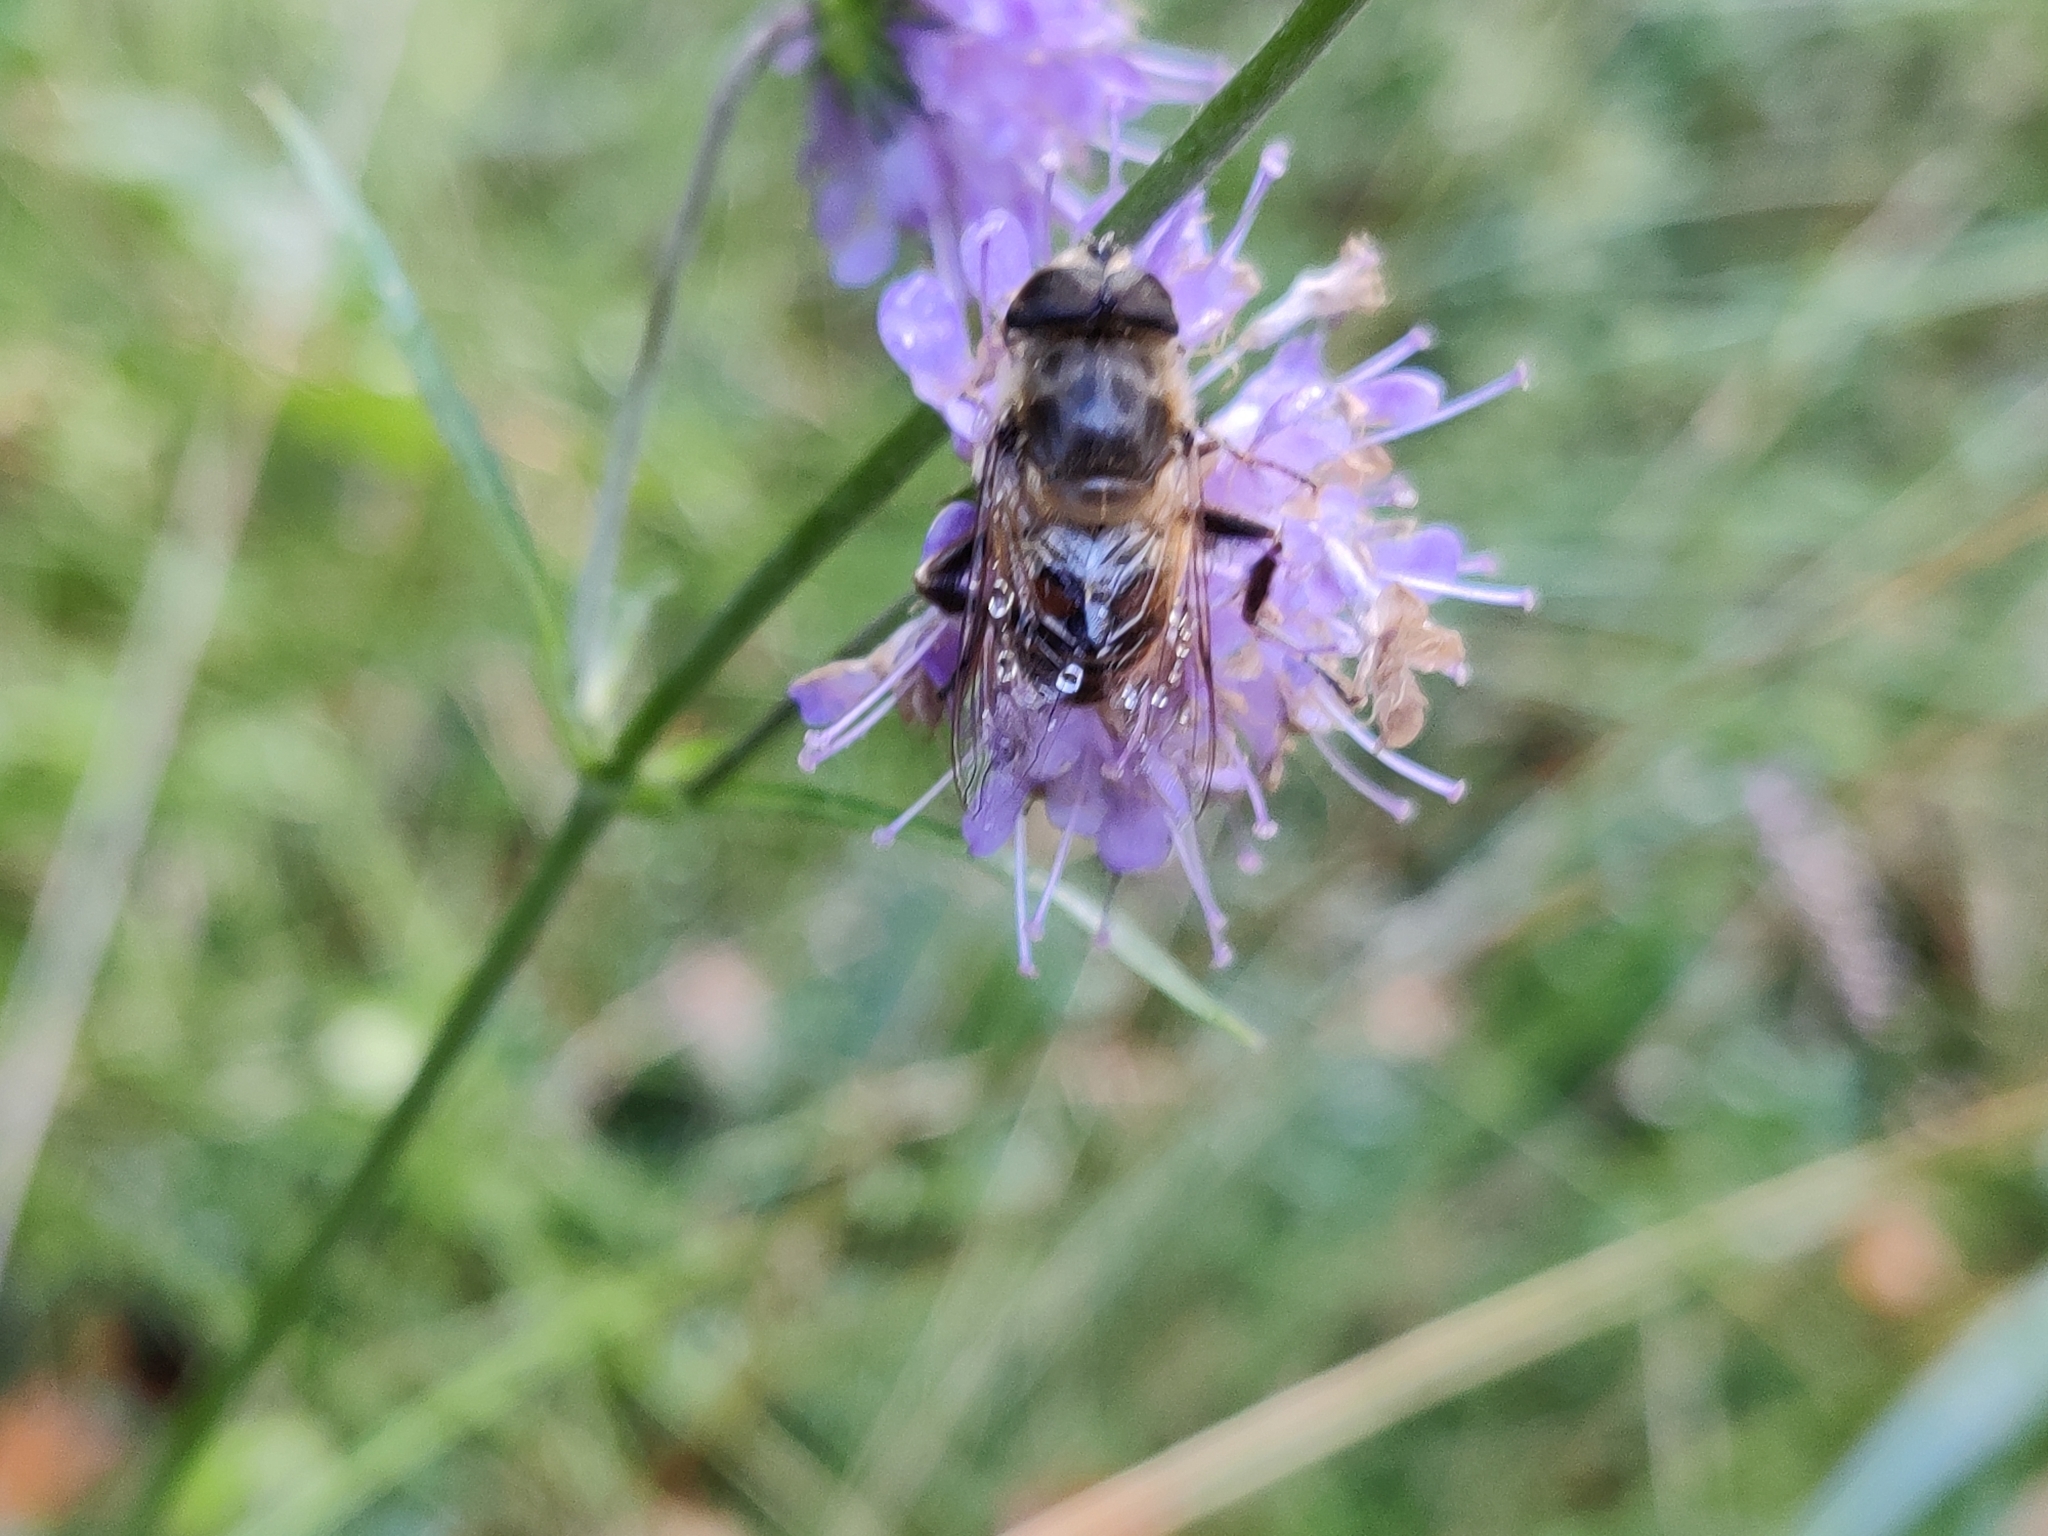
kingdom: Animalia
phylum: Arthropoda
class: Insecta
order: Diptera
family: Syrphidae
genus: Eristalis
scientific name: Eristalis tenax
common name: Drone fly
